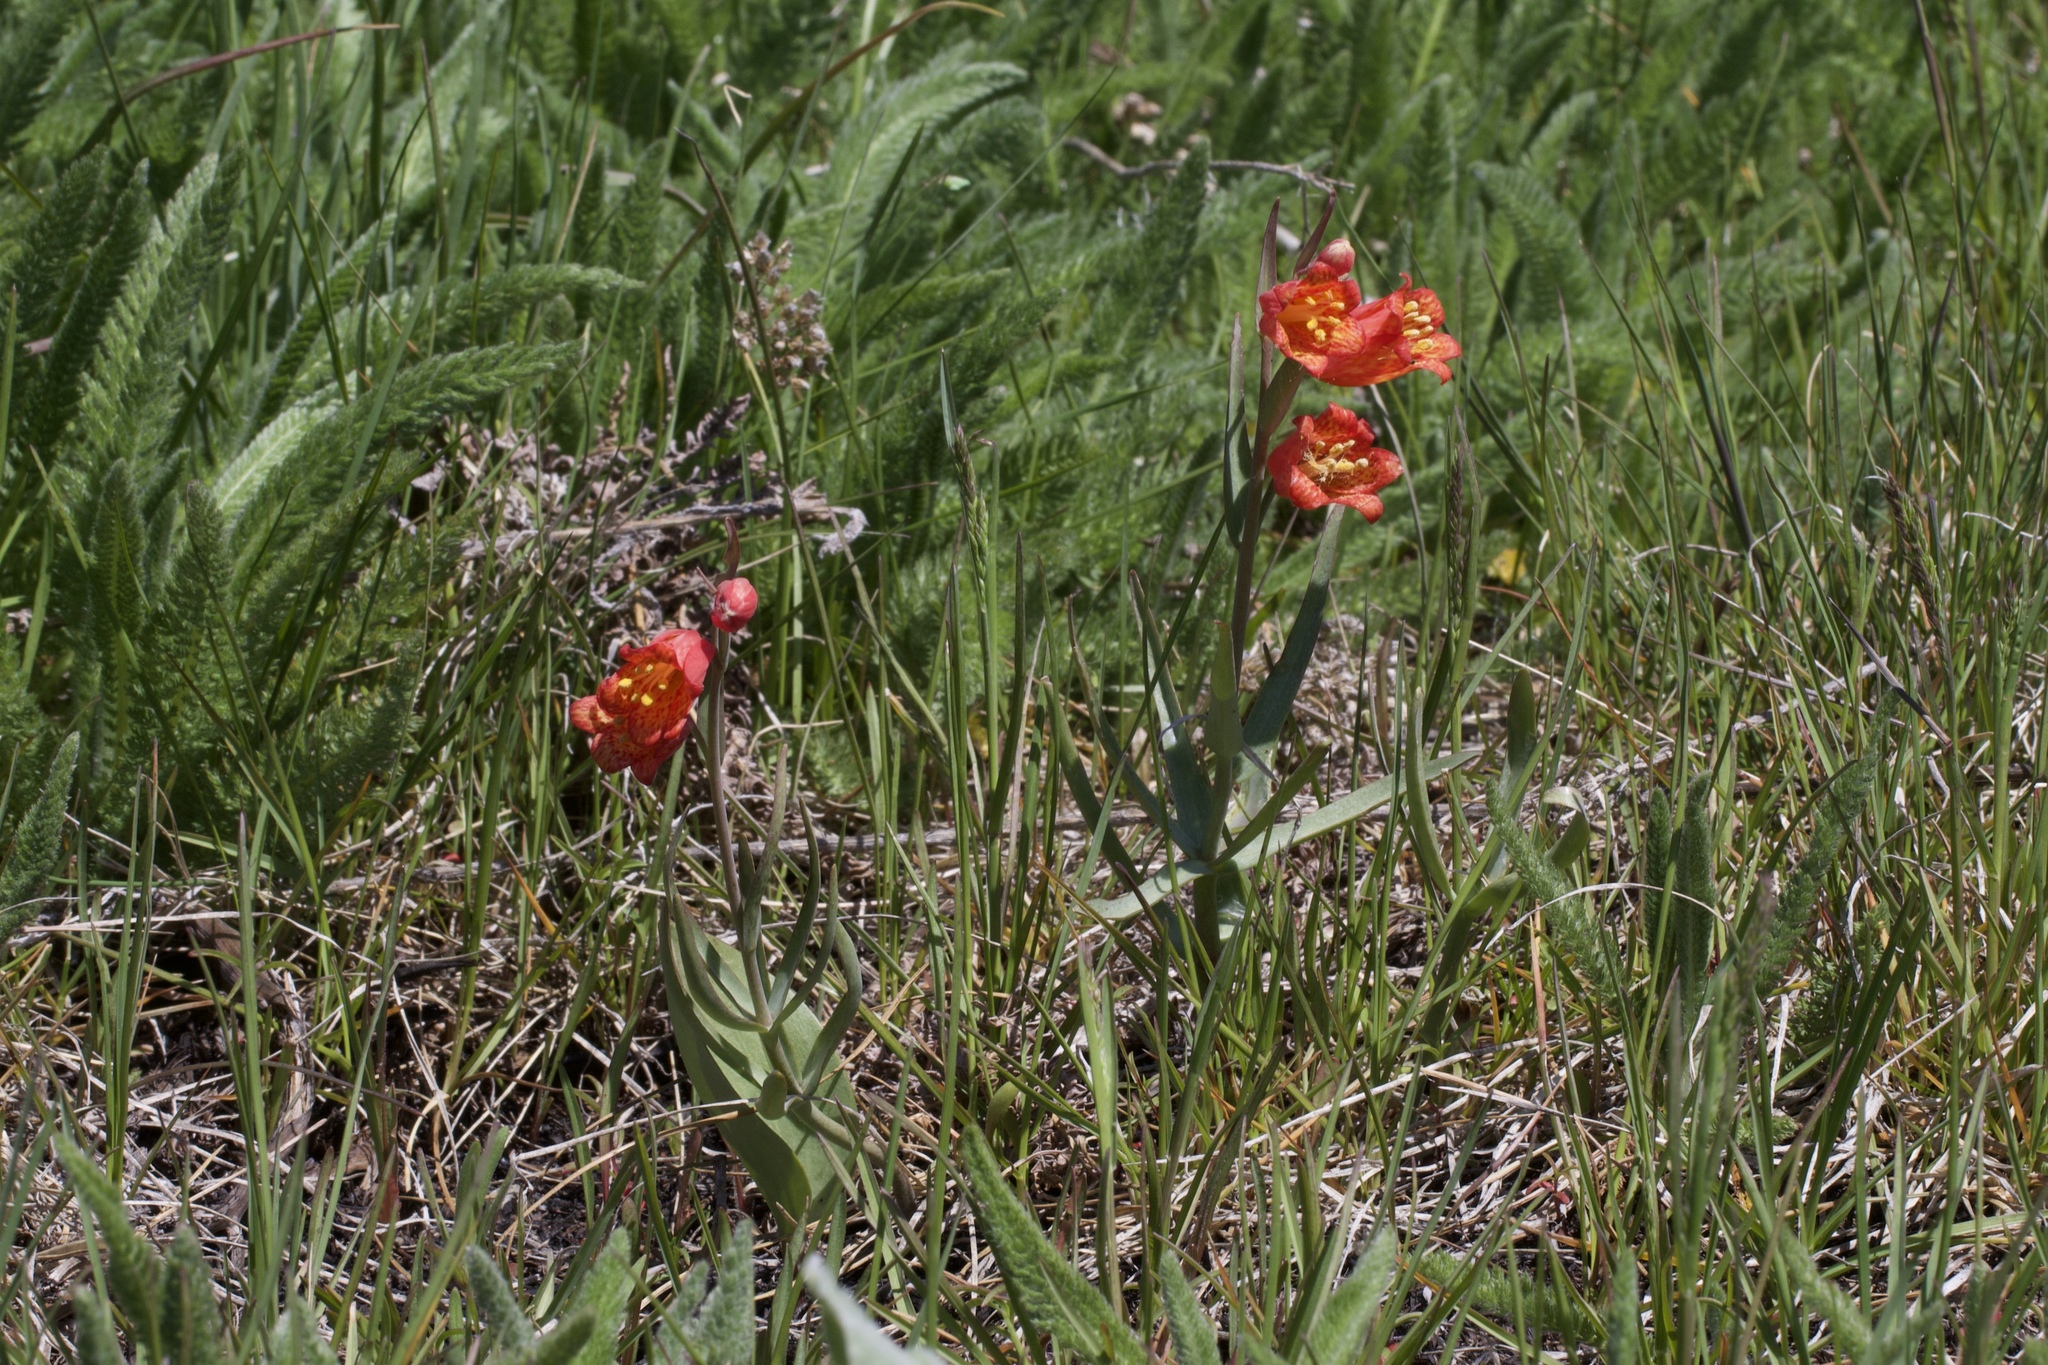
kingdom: Plantae
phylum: Tracheophyta
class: Liliopsida
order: Liliales
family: Liliaceae
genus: Fritillaria
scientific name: Fritillaria recurva
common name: Scarlet fritillary
